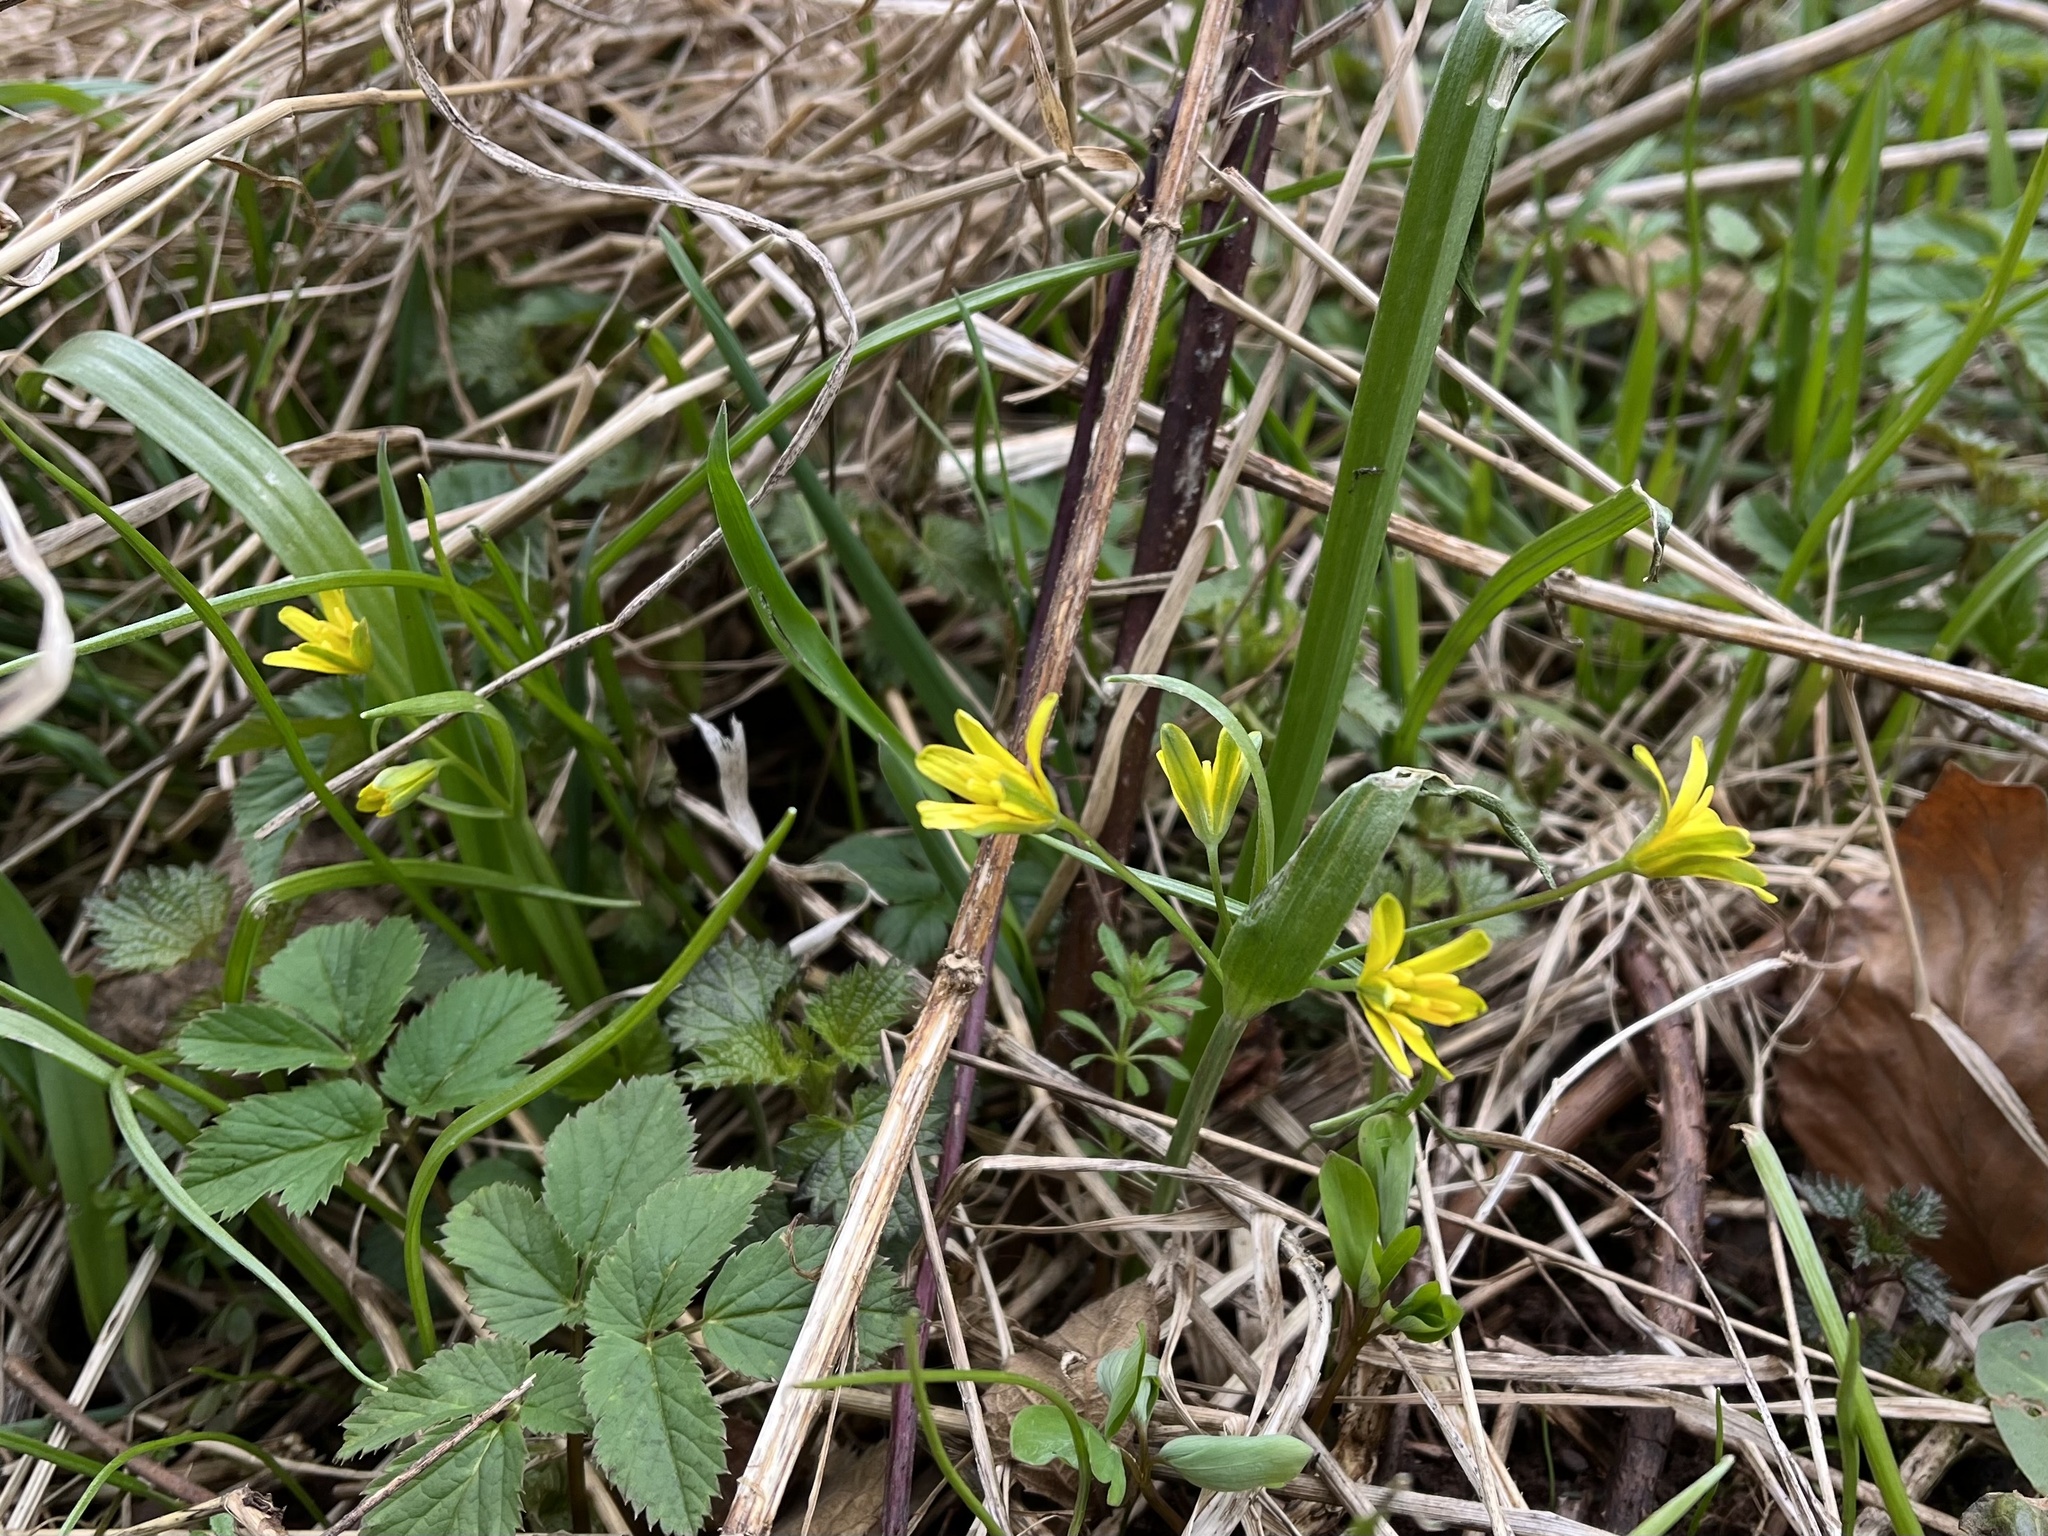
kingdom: Plantae
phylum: Tracheophyta
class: Liliopsida
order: Liliales
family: Liliaceae
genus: Gagea
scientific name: Gagea lutea
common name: Yellow star-of-bethlehem
